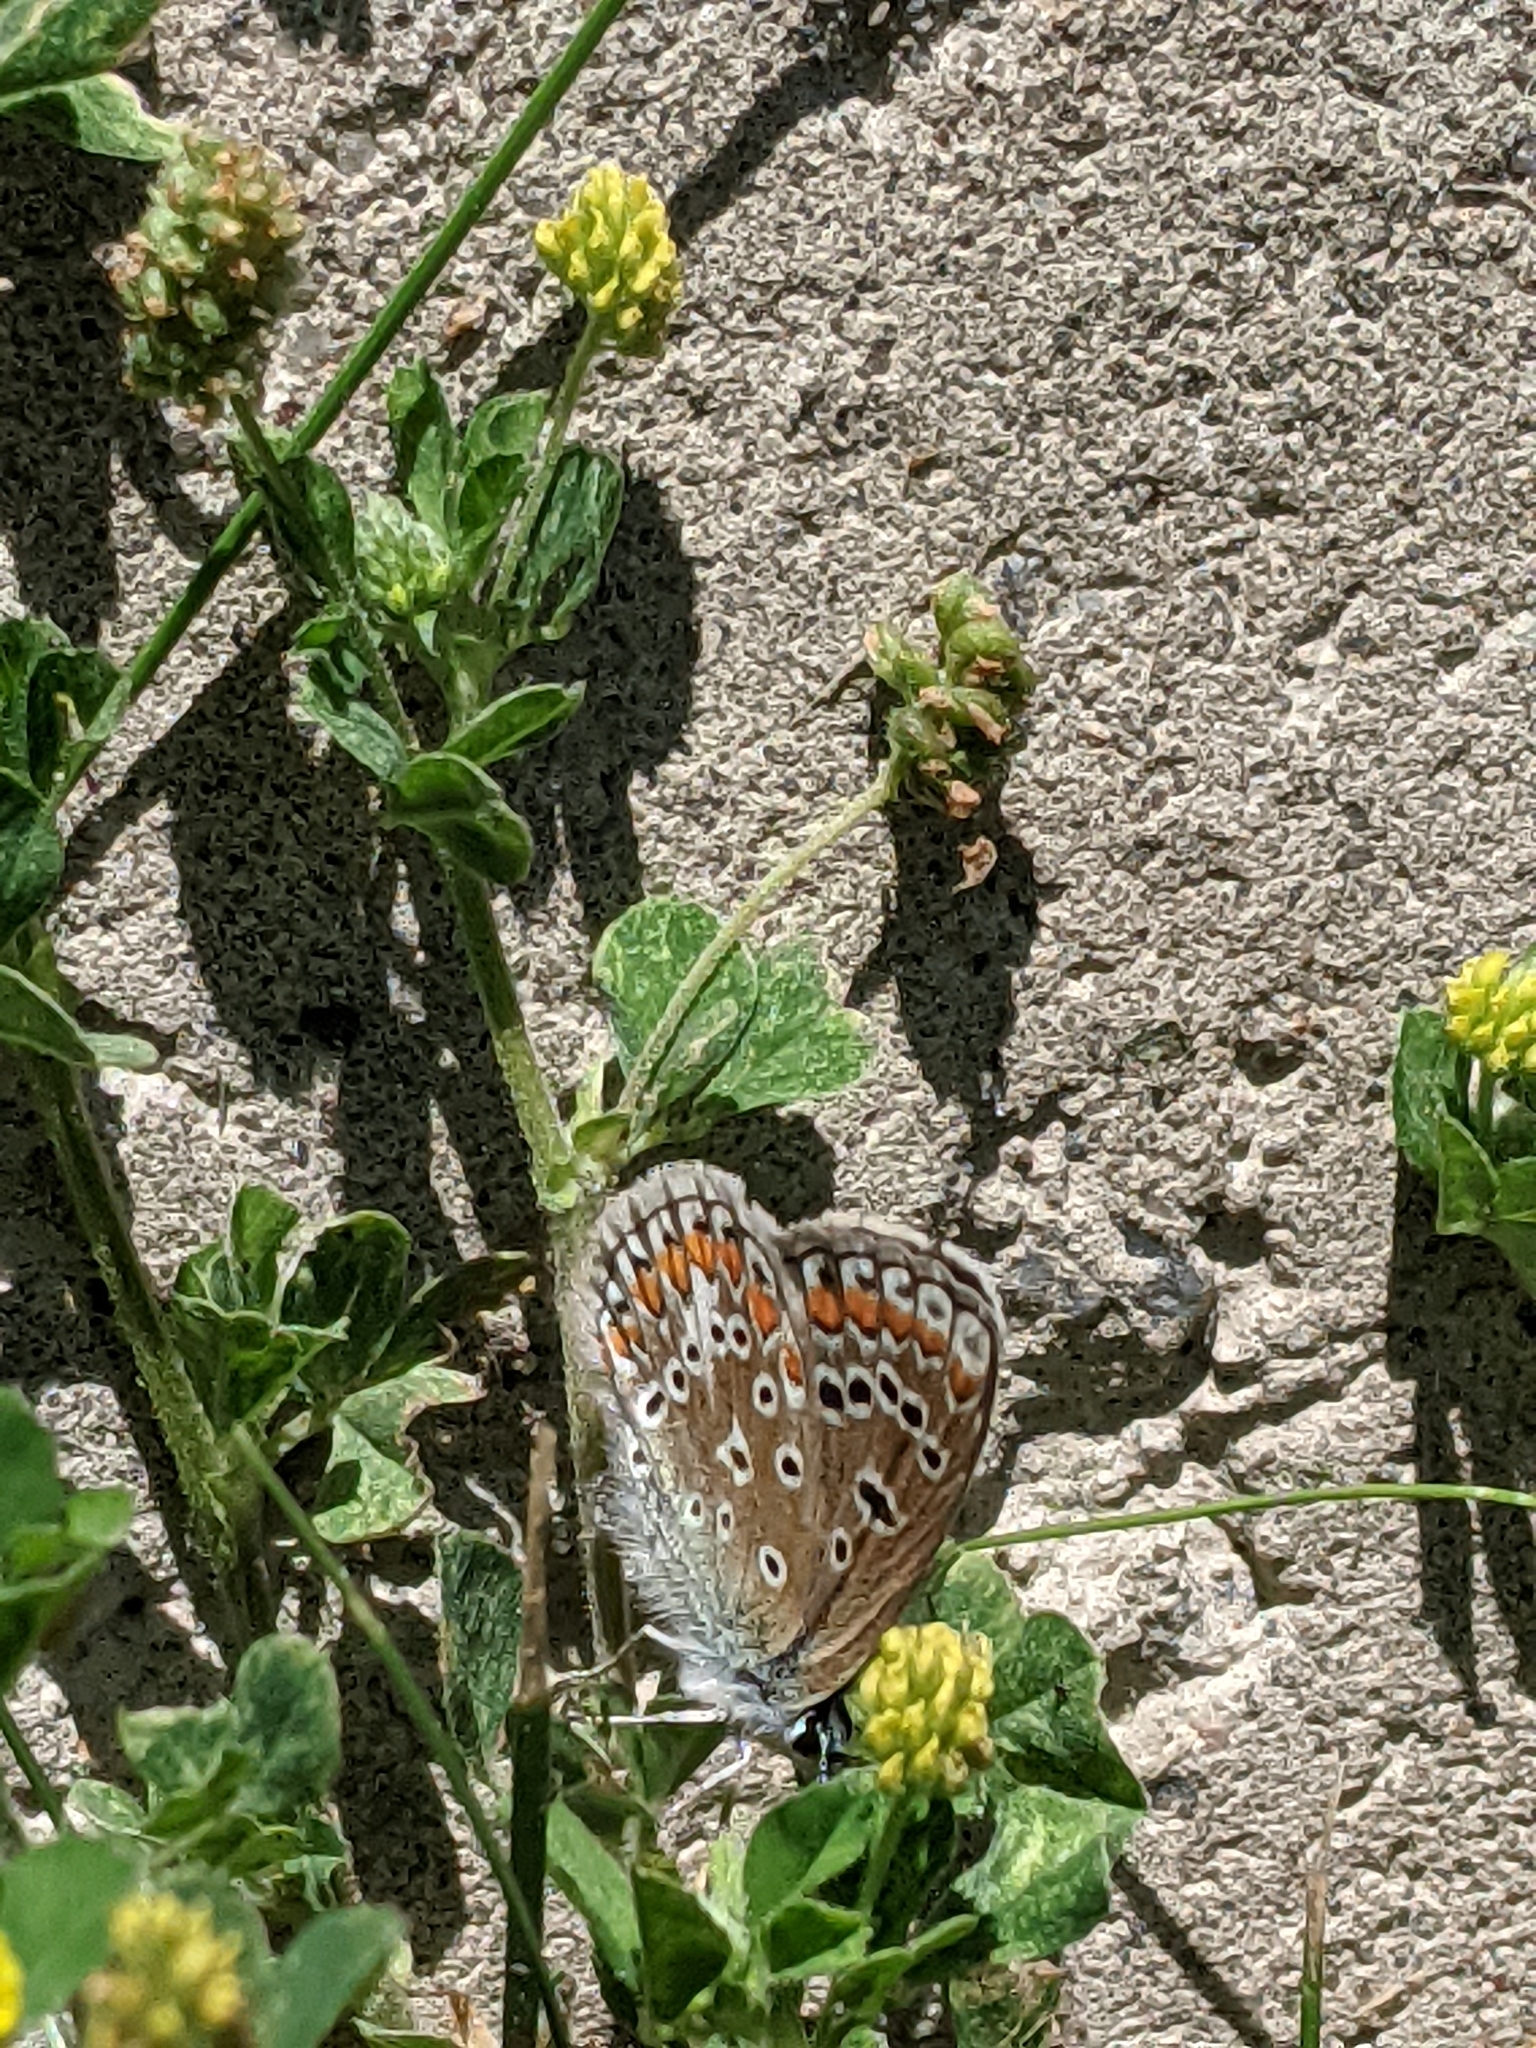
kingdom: Animalia
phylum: Arthropoda
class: Insecta
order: Lepidoptera
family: Lycaenidae
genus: Polyommatus
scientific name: Polyommatus icarus
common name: Common blue
